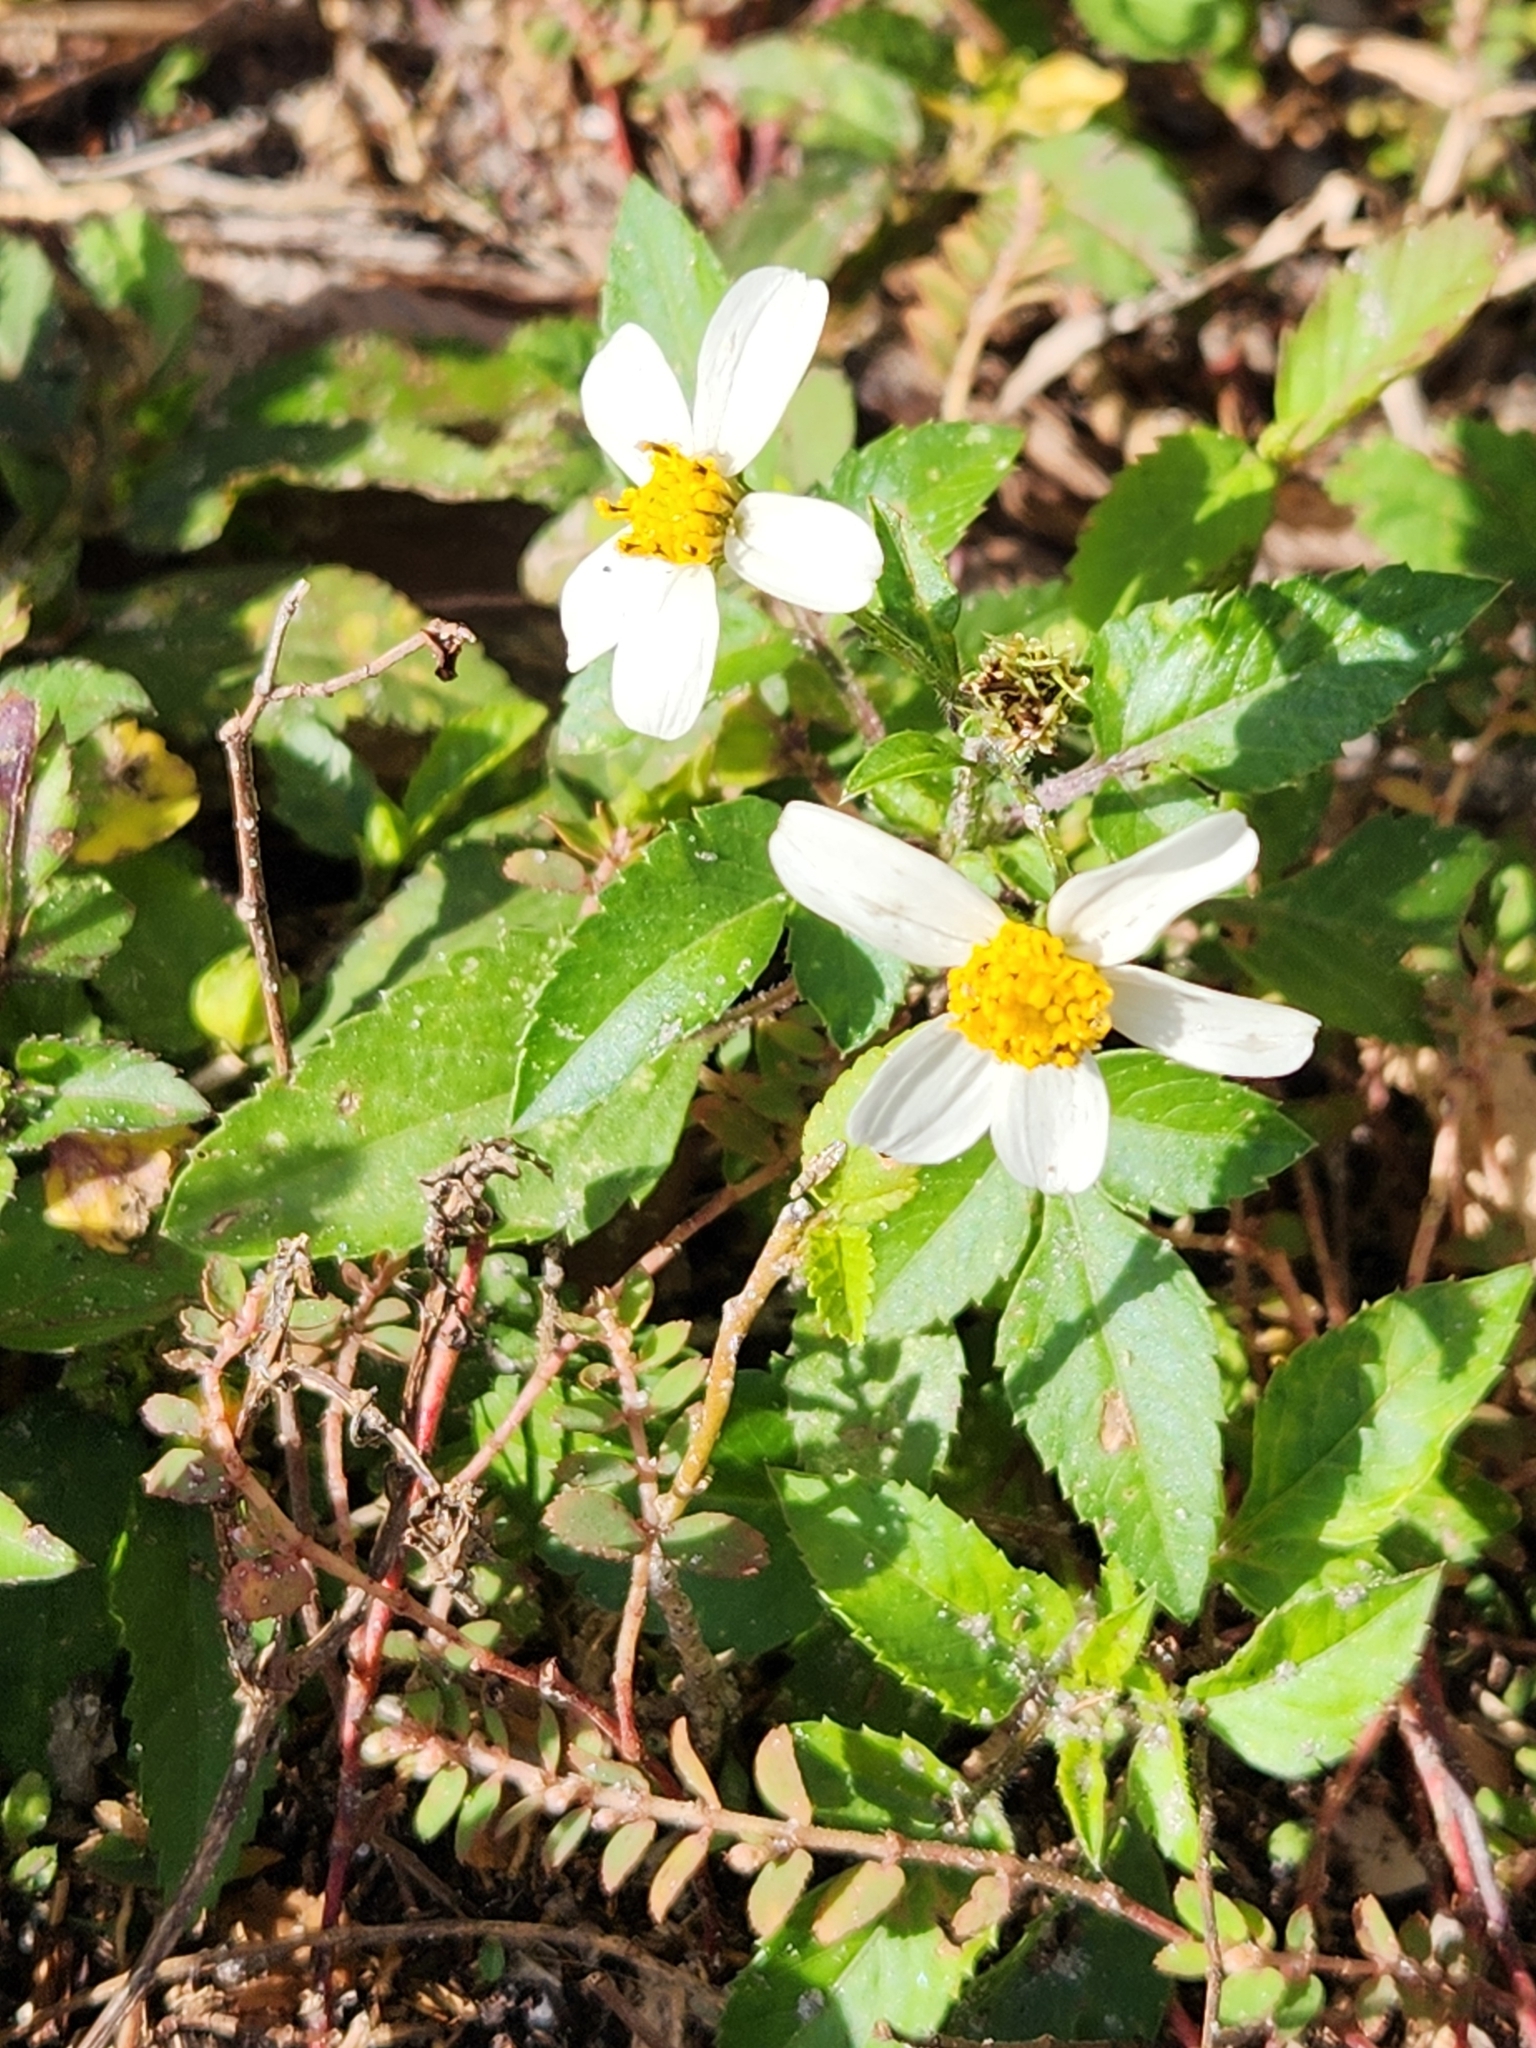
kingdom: Plantae
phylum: Tracheophyta
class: Magnoliopsida
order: Asterales
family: Asteraceae
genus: Bidens
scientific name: Bidens alba
